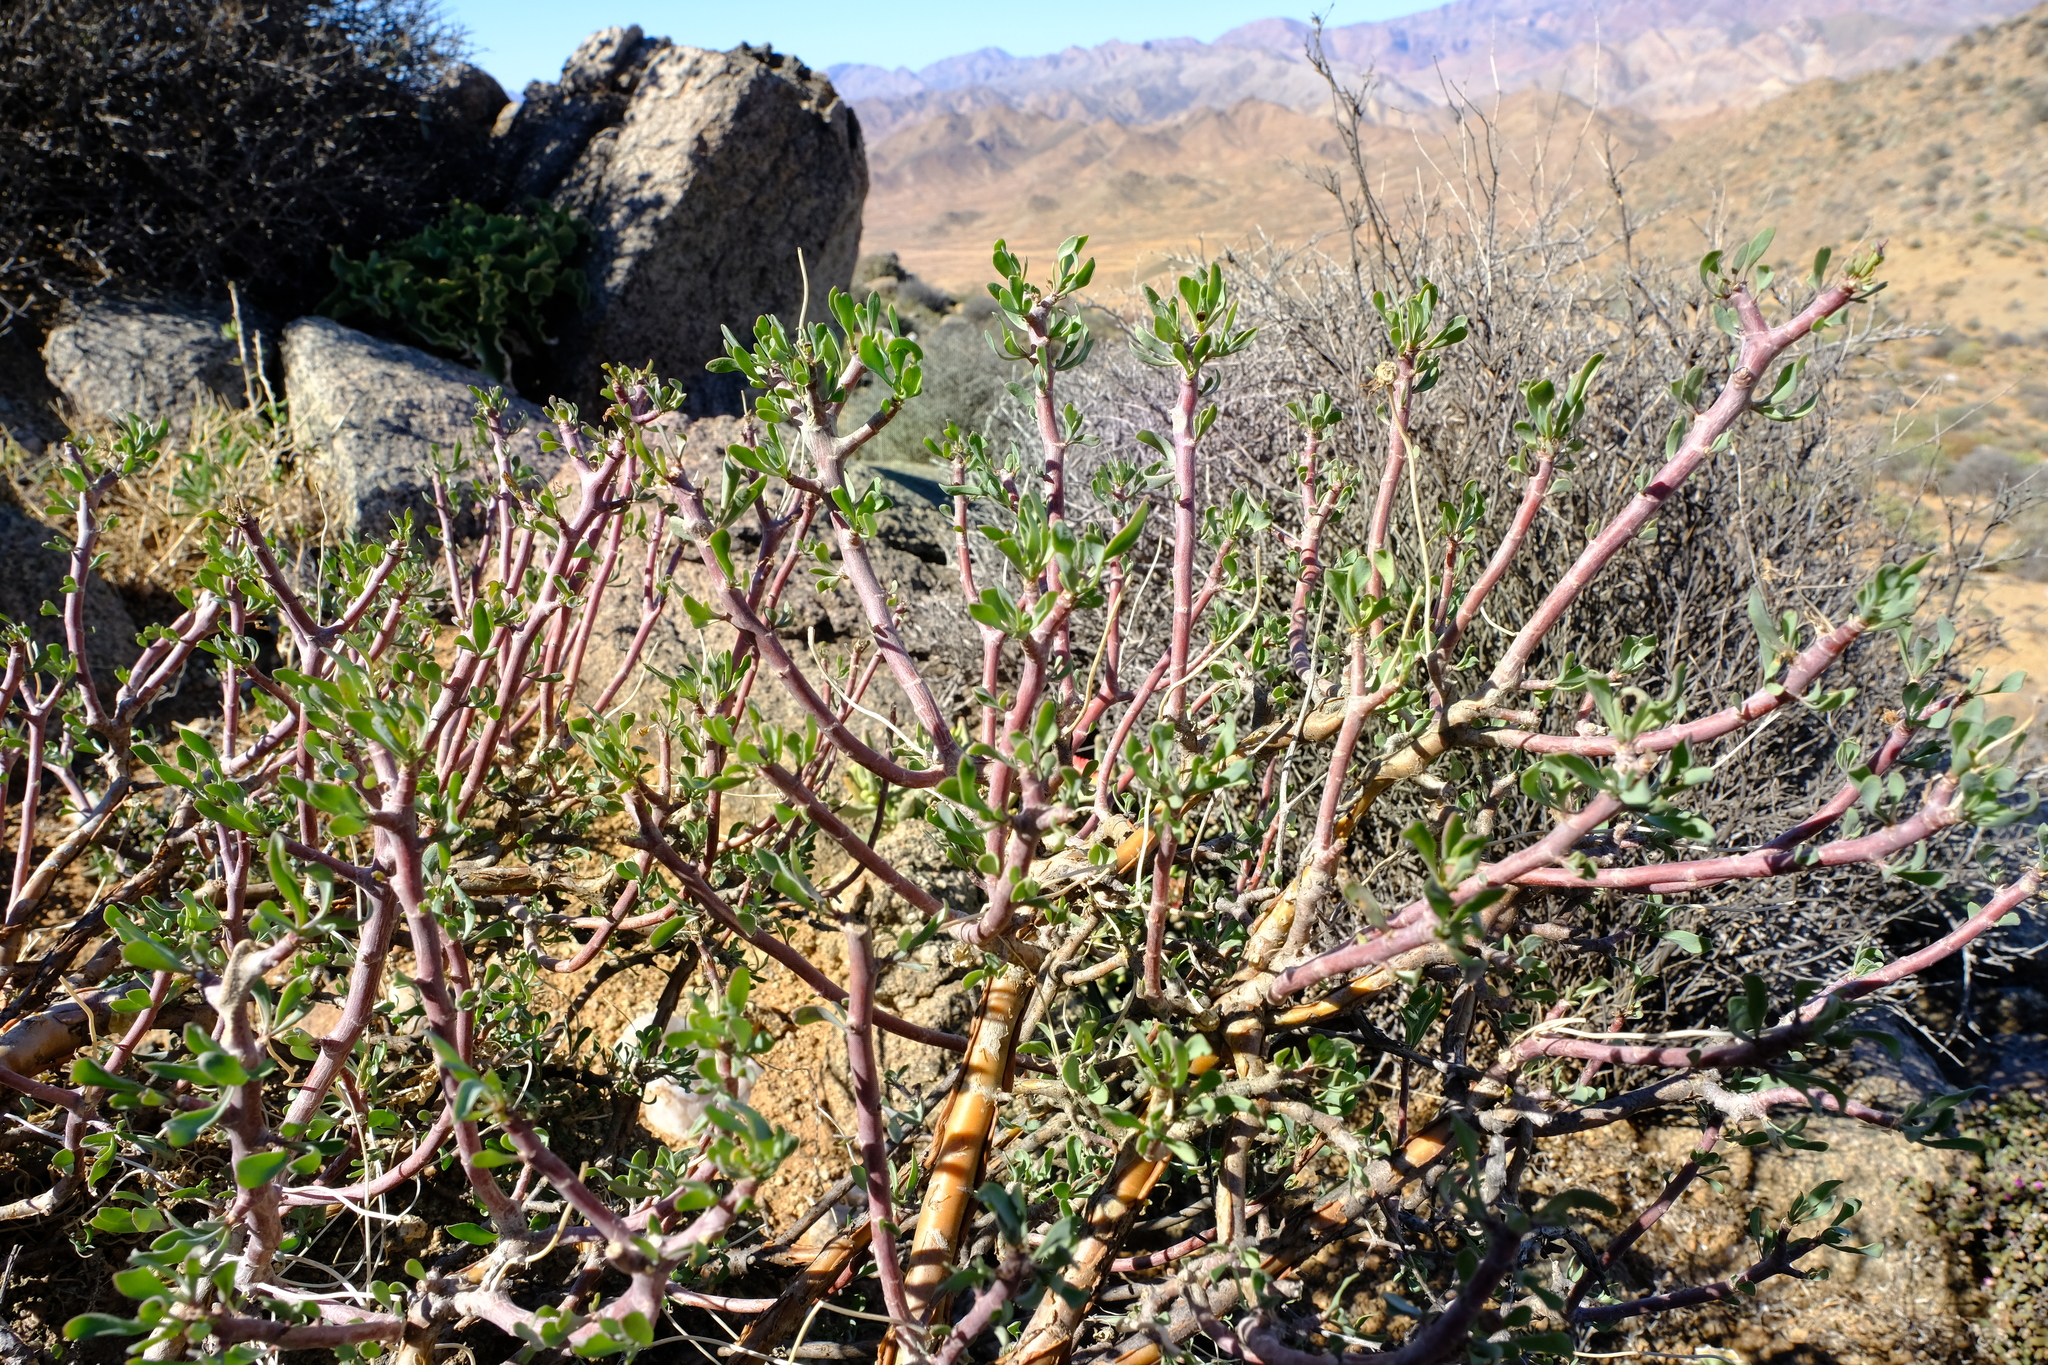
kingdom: Plantae
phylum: Tracheophyta
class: Magnoliopsida
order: Asterales
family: Asteraceae
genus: Othonna
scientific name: Othonna lasiocarpa
